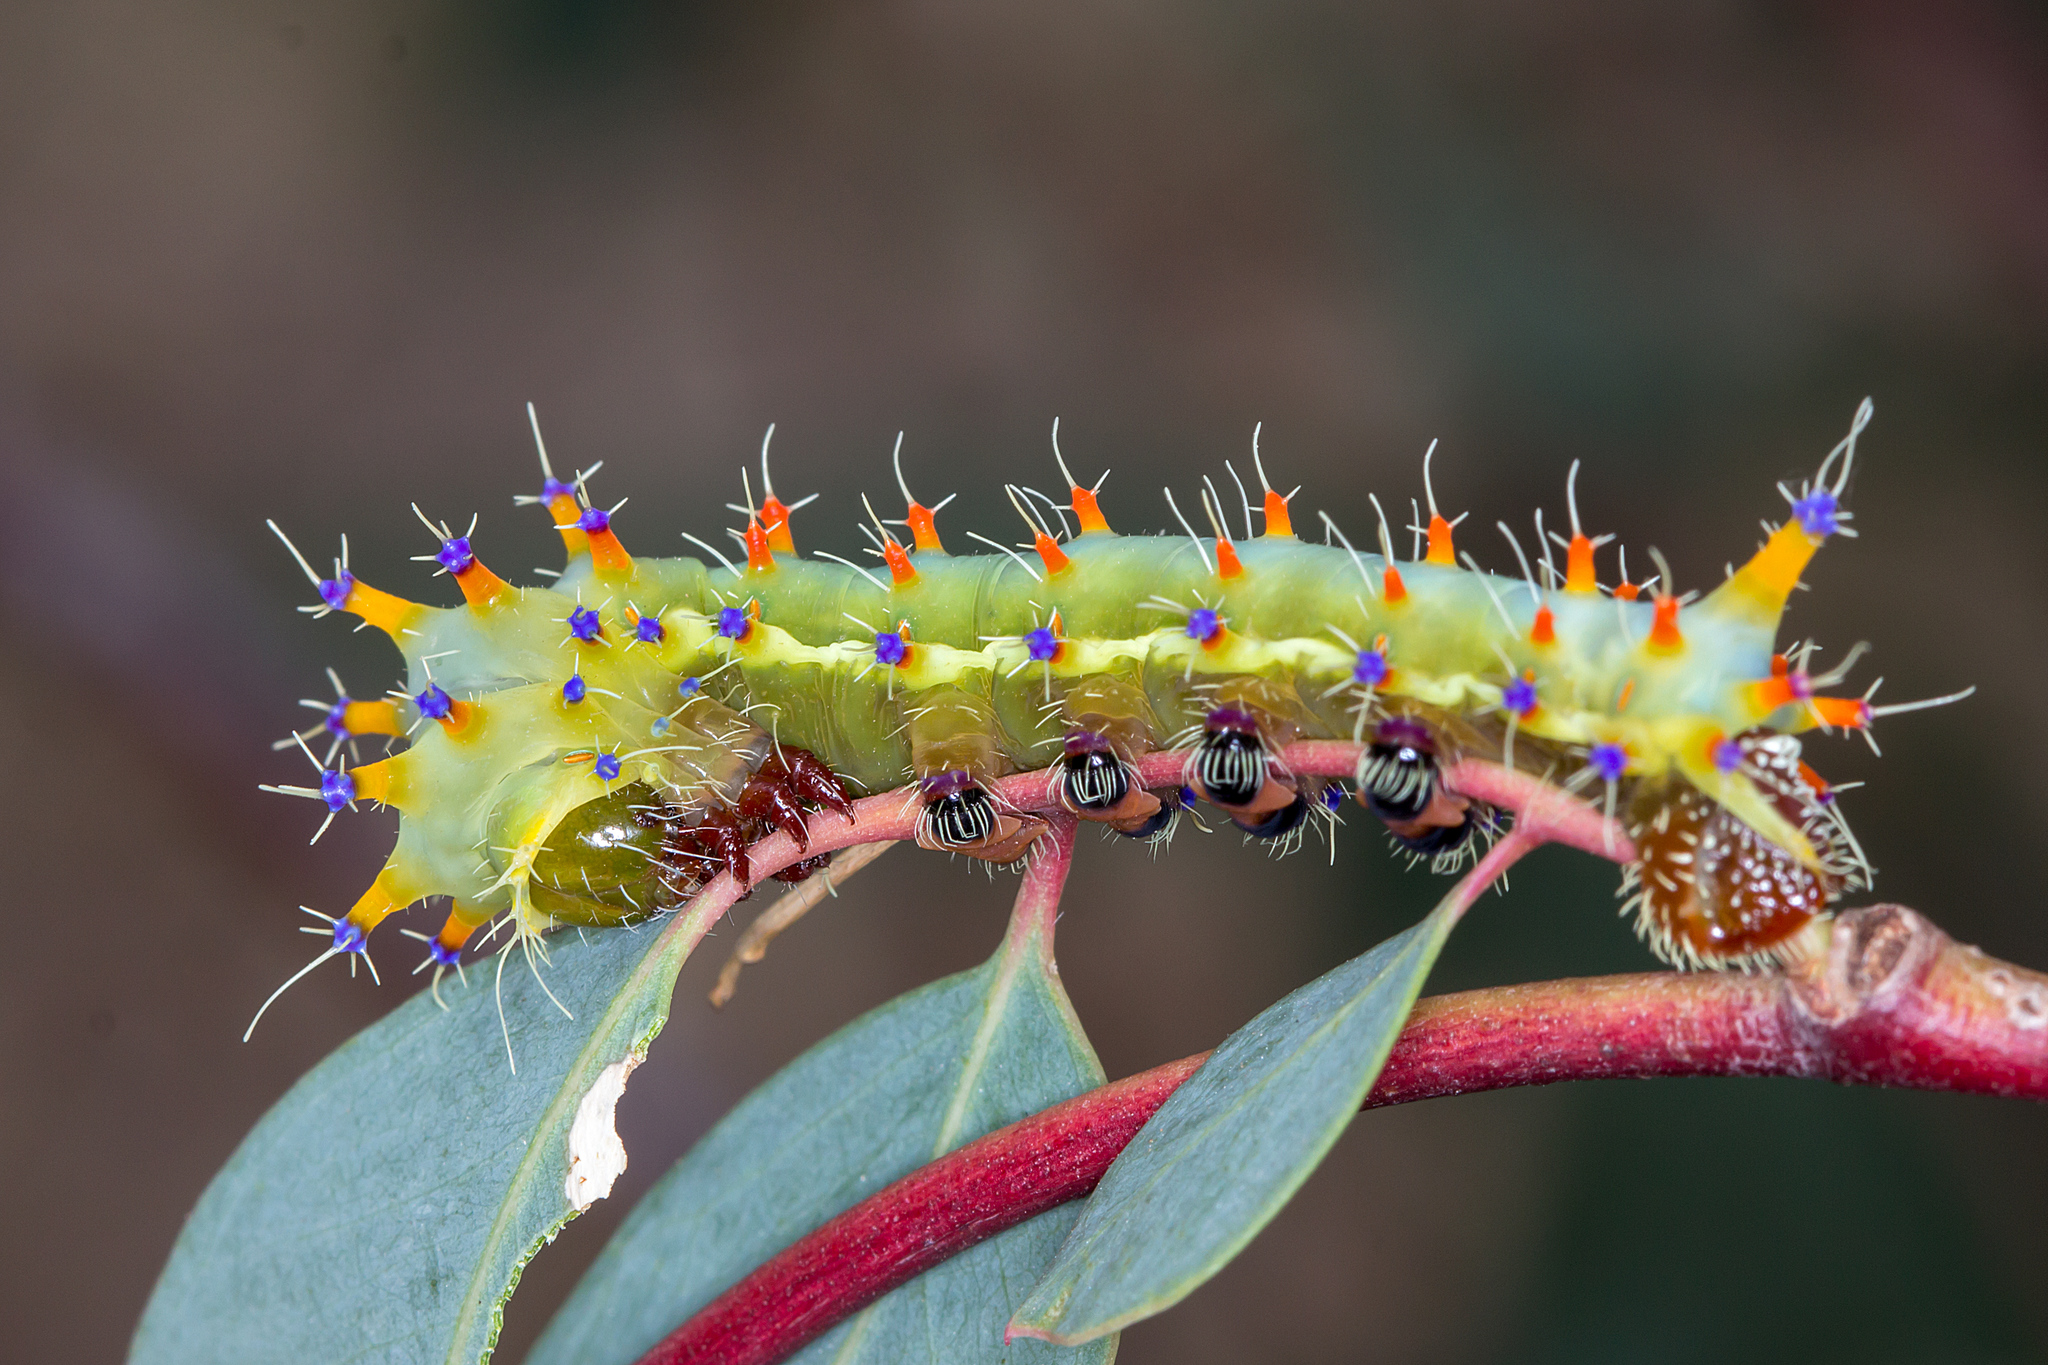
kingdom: Animalia
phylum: Arthropoda
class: Insecta
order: Lepidoptera
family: Saturniidae
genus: Opodiphthera
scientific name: Opodiphthera
